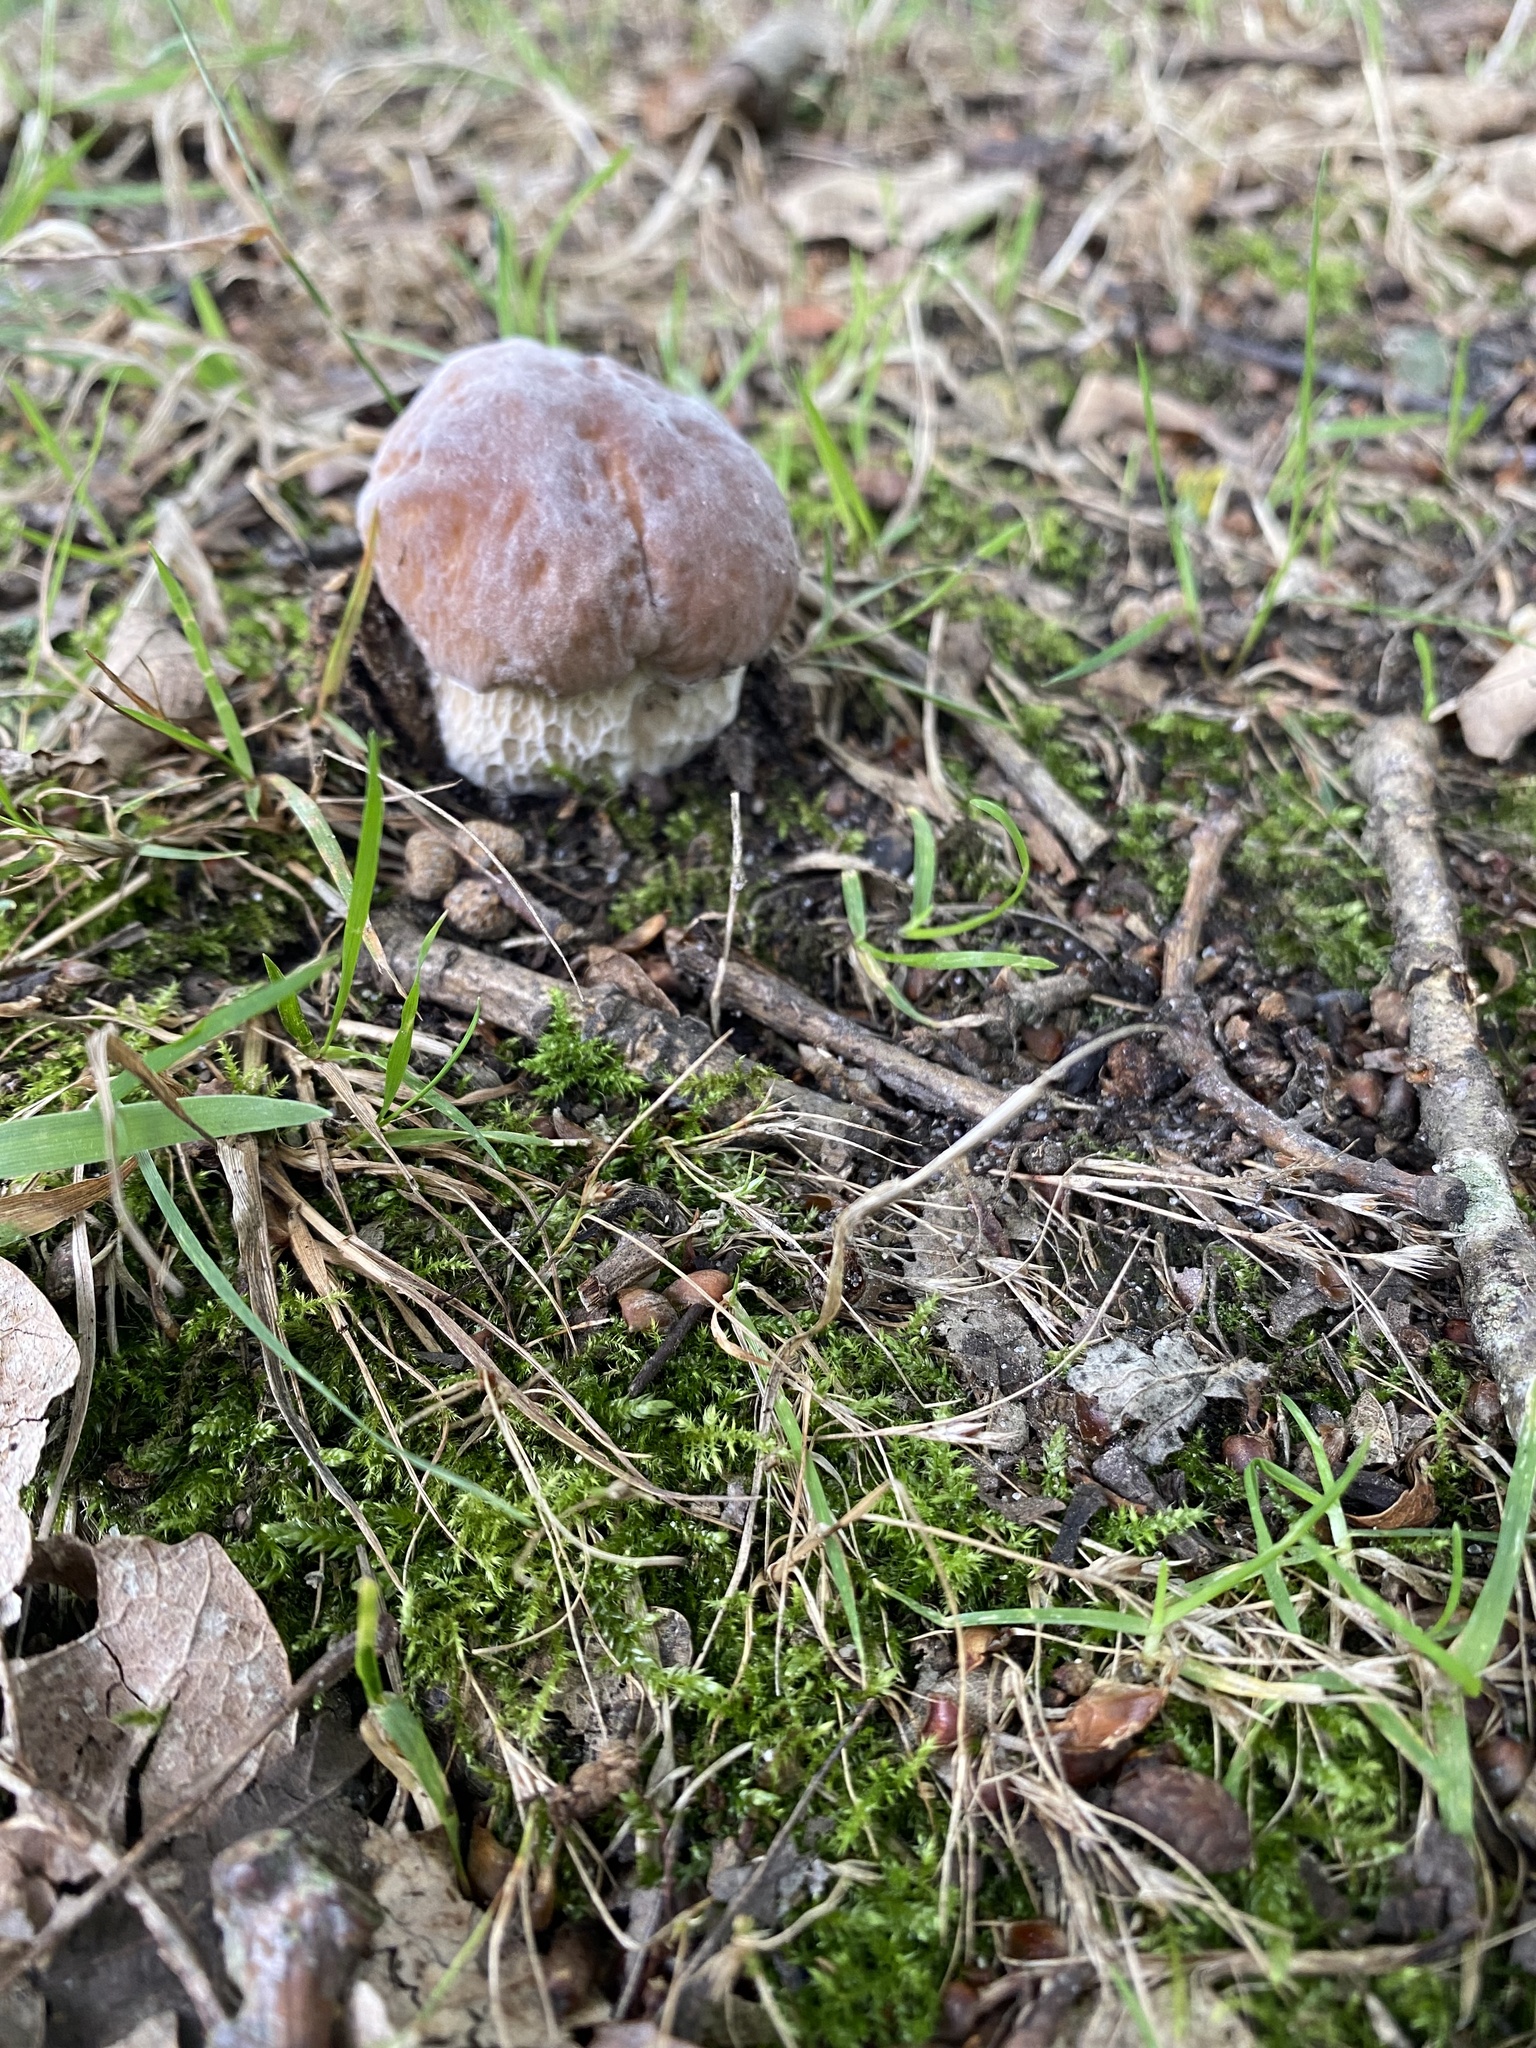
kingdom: Fungi
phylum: Basidiomycota
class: Agaricomycetes
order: Boletales
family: Boletaceae
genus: Boletus
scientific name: Boletus edulis
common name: Cep
